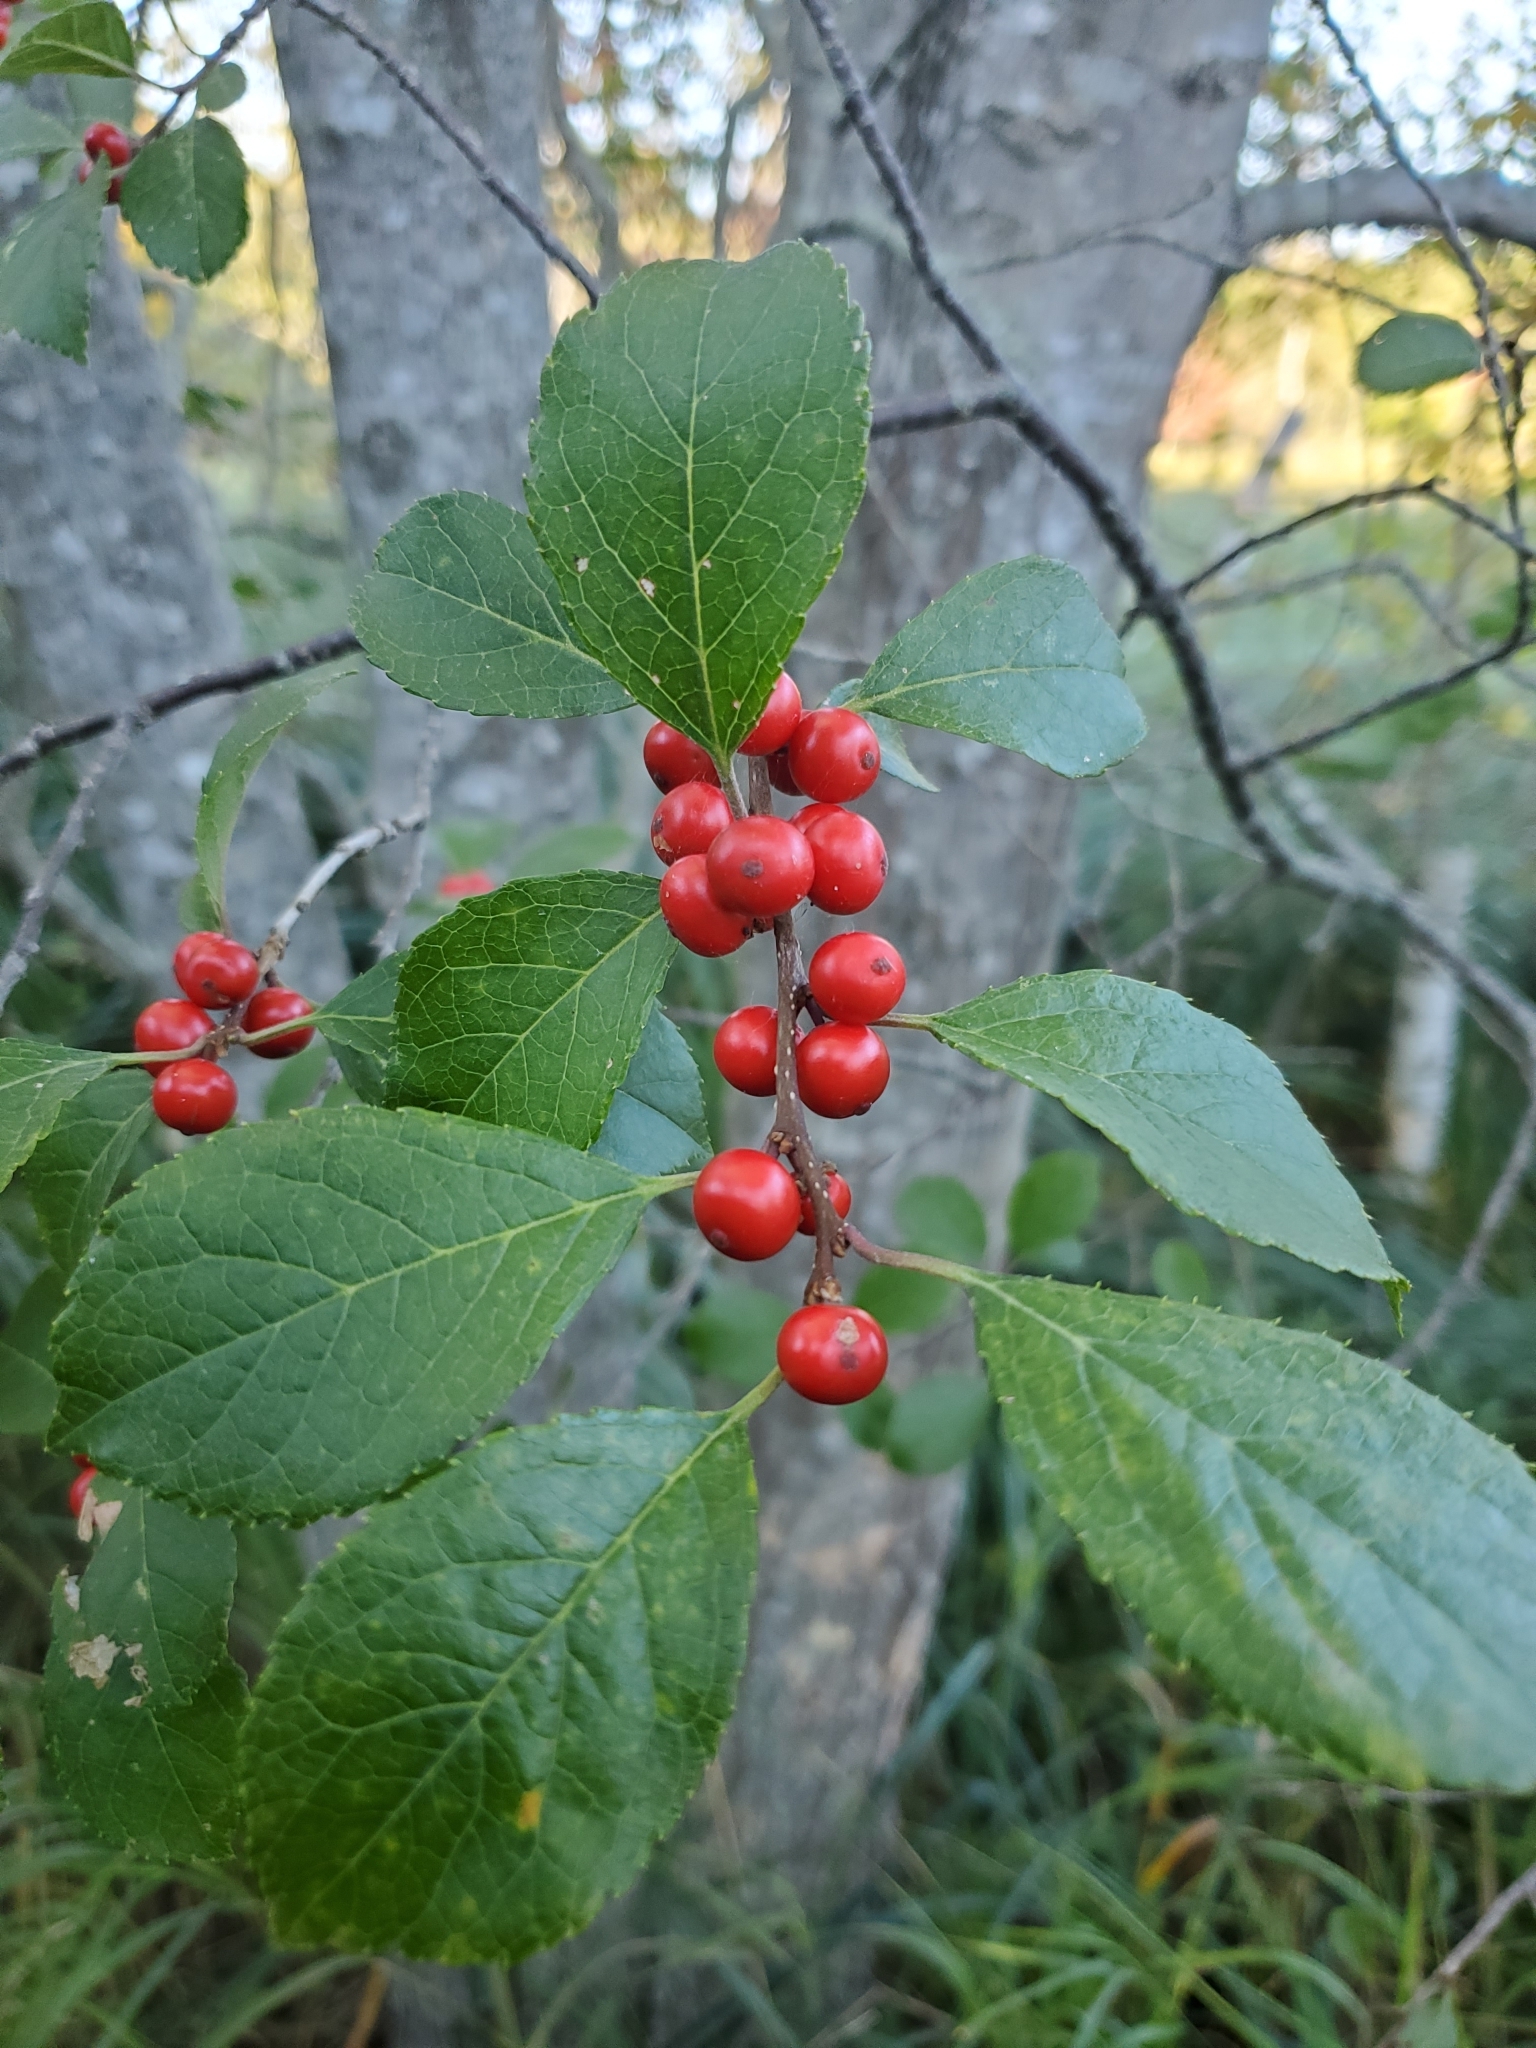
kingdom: Plantae
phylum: Tracheophyta
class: Magnoliopsida
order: Aquifoliales
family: Aquifoliaceae
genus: Ilex
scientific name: Ilex verticillata
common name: Virginia winterberry
